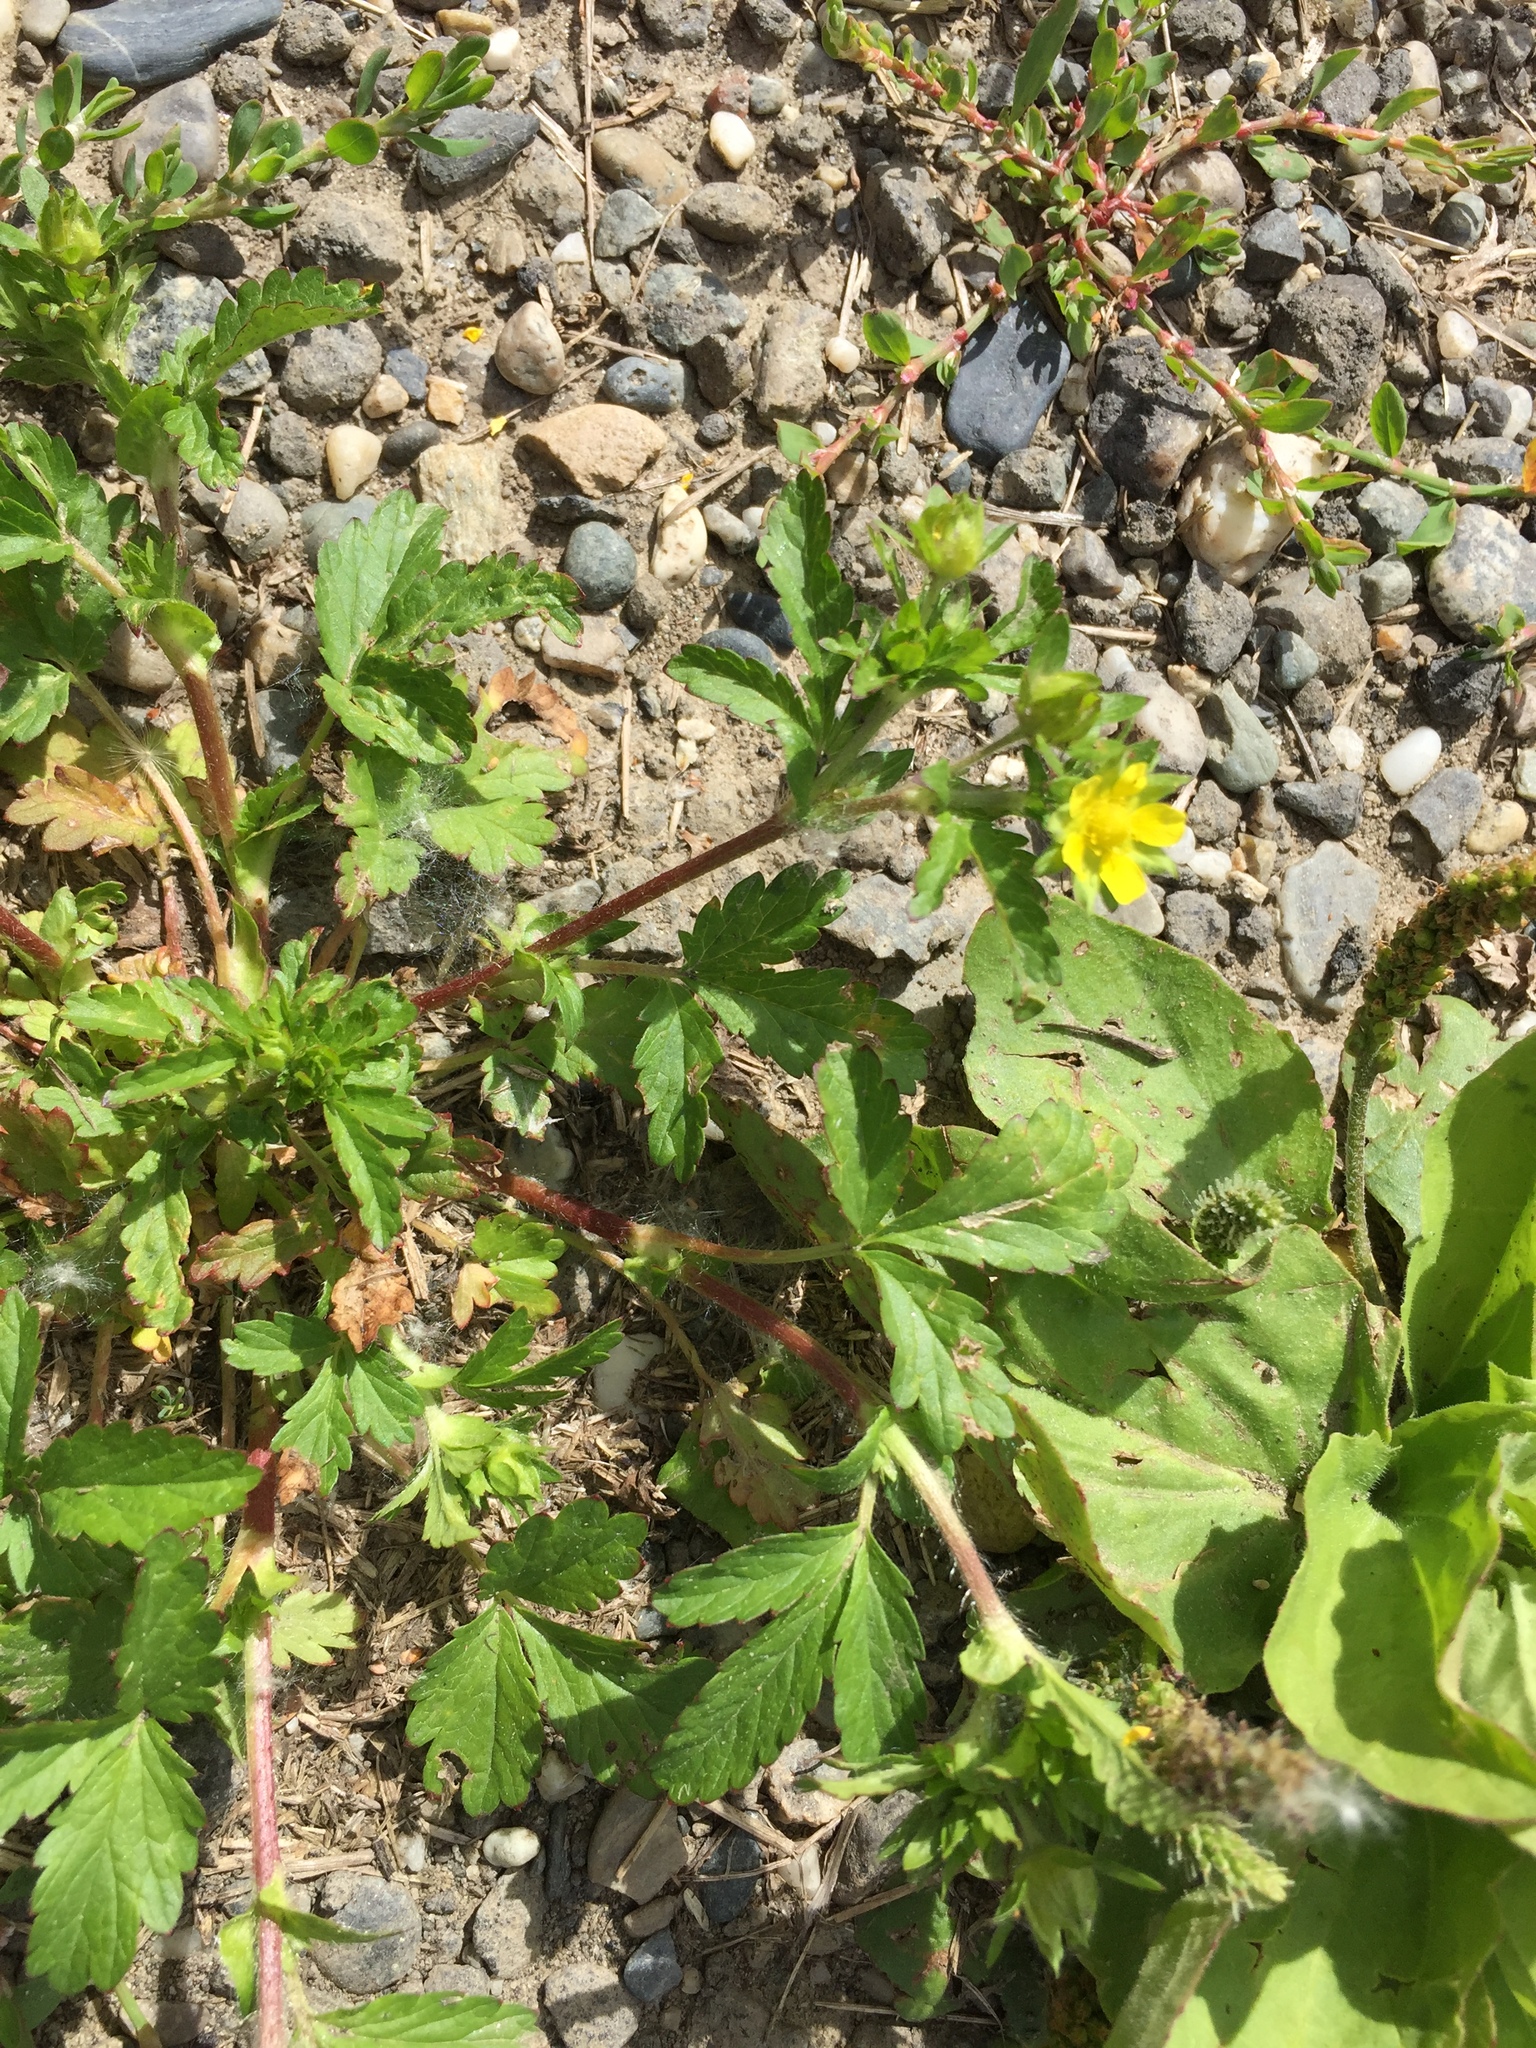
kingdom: Plantae
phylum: Tracheophyta
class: Magnoliopsida
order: Rosales
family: Rosaceae
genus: Potentilla
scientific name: Potentilla norvegica
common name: Ternate-leaved cinquefoil
